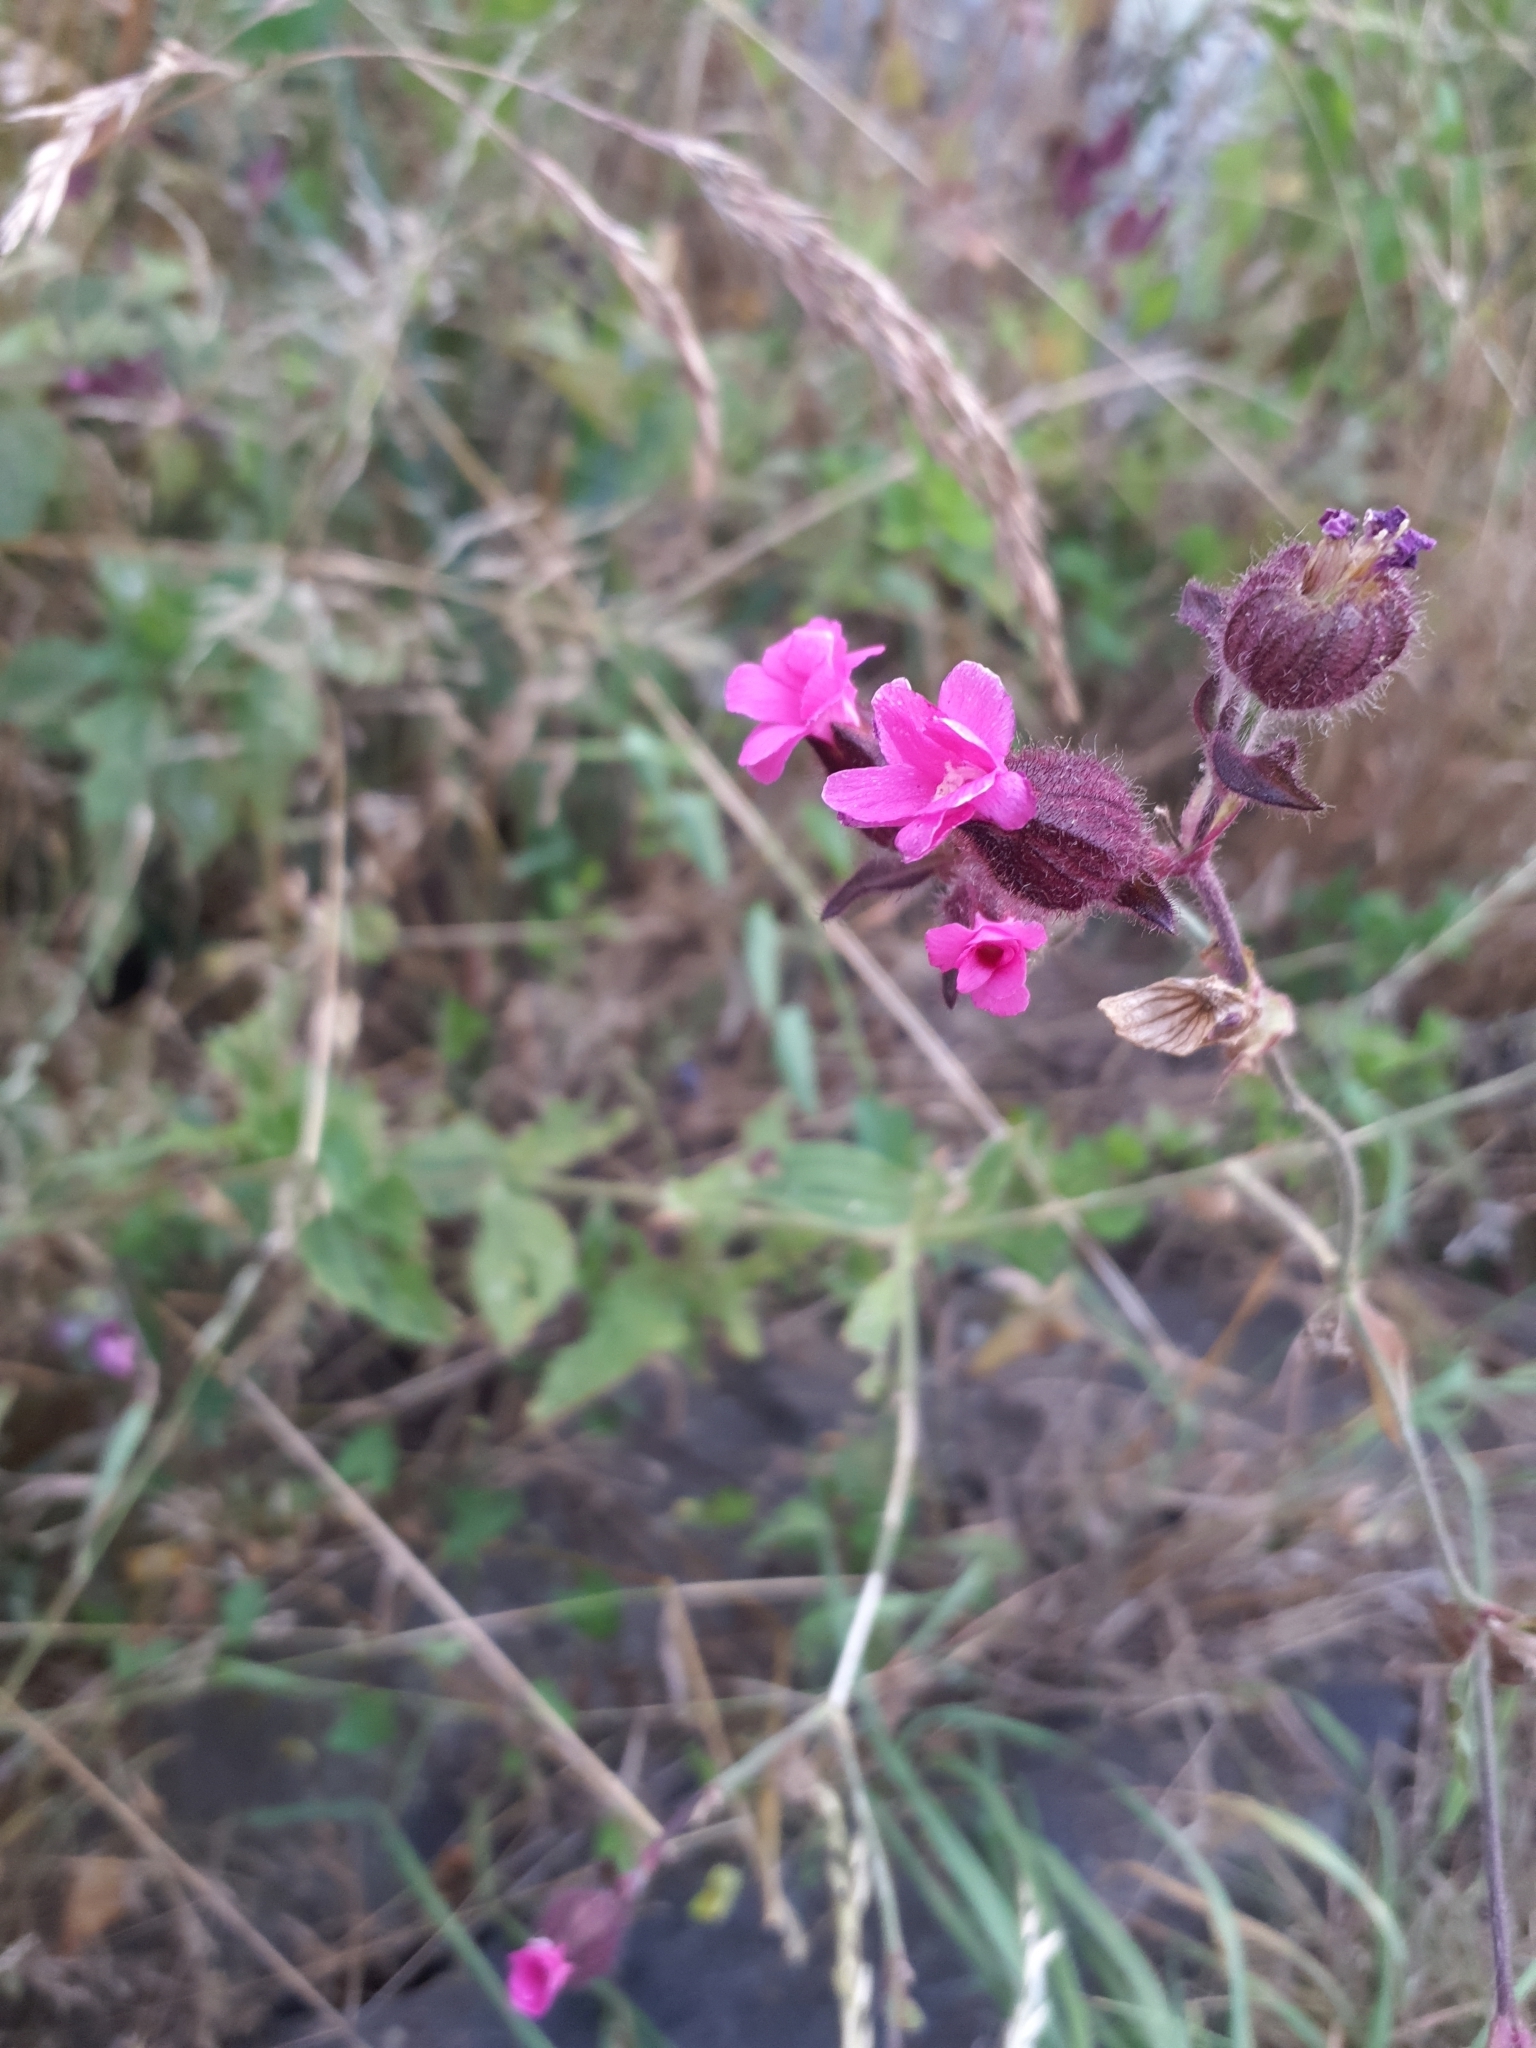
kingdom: Plantae
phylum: Tracheophyta
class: Magnoliopsida
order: Caryophyllales
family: Caryophyllaceae
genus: Silene
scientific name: Silene dioica
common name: Red campion
